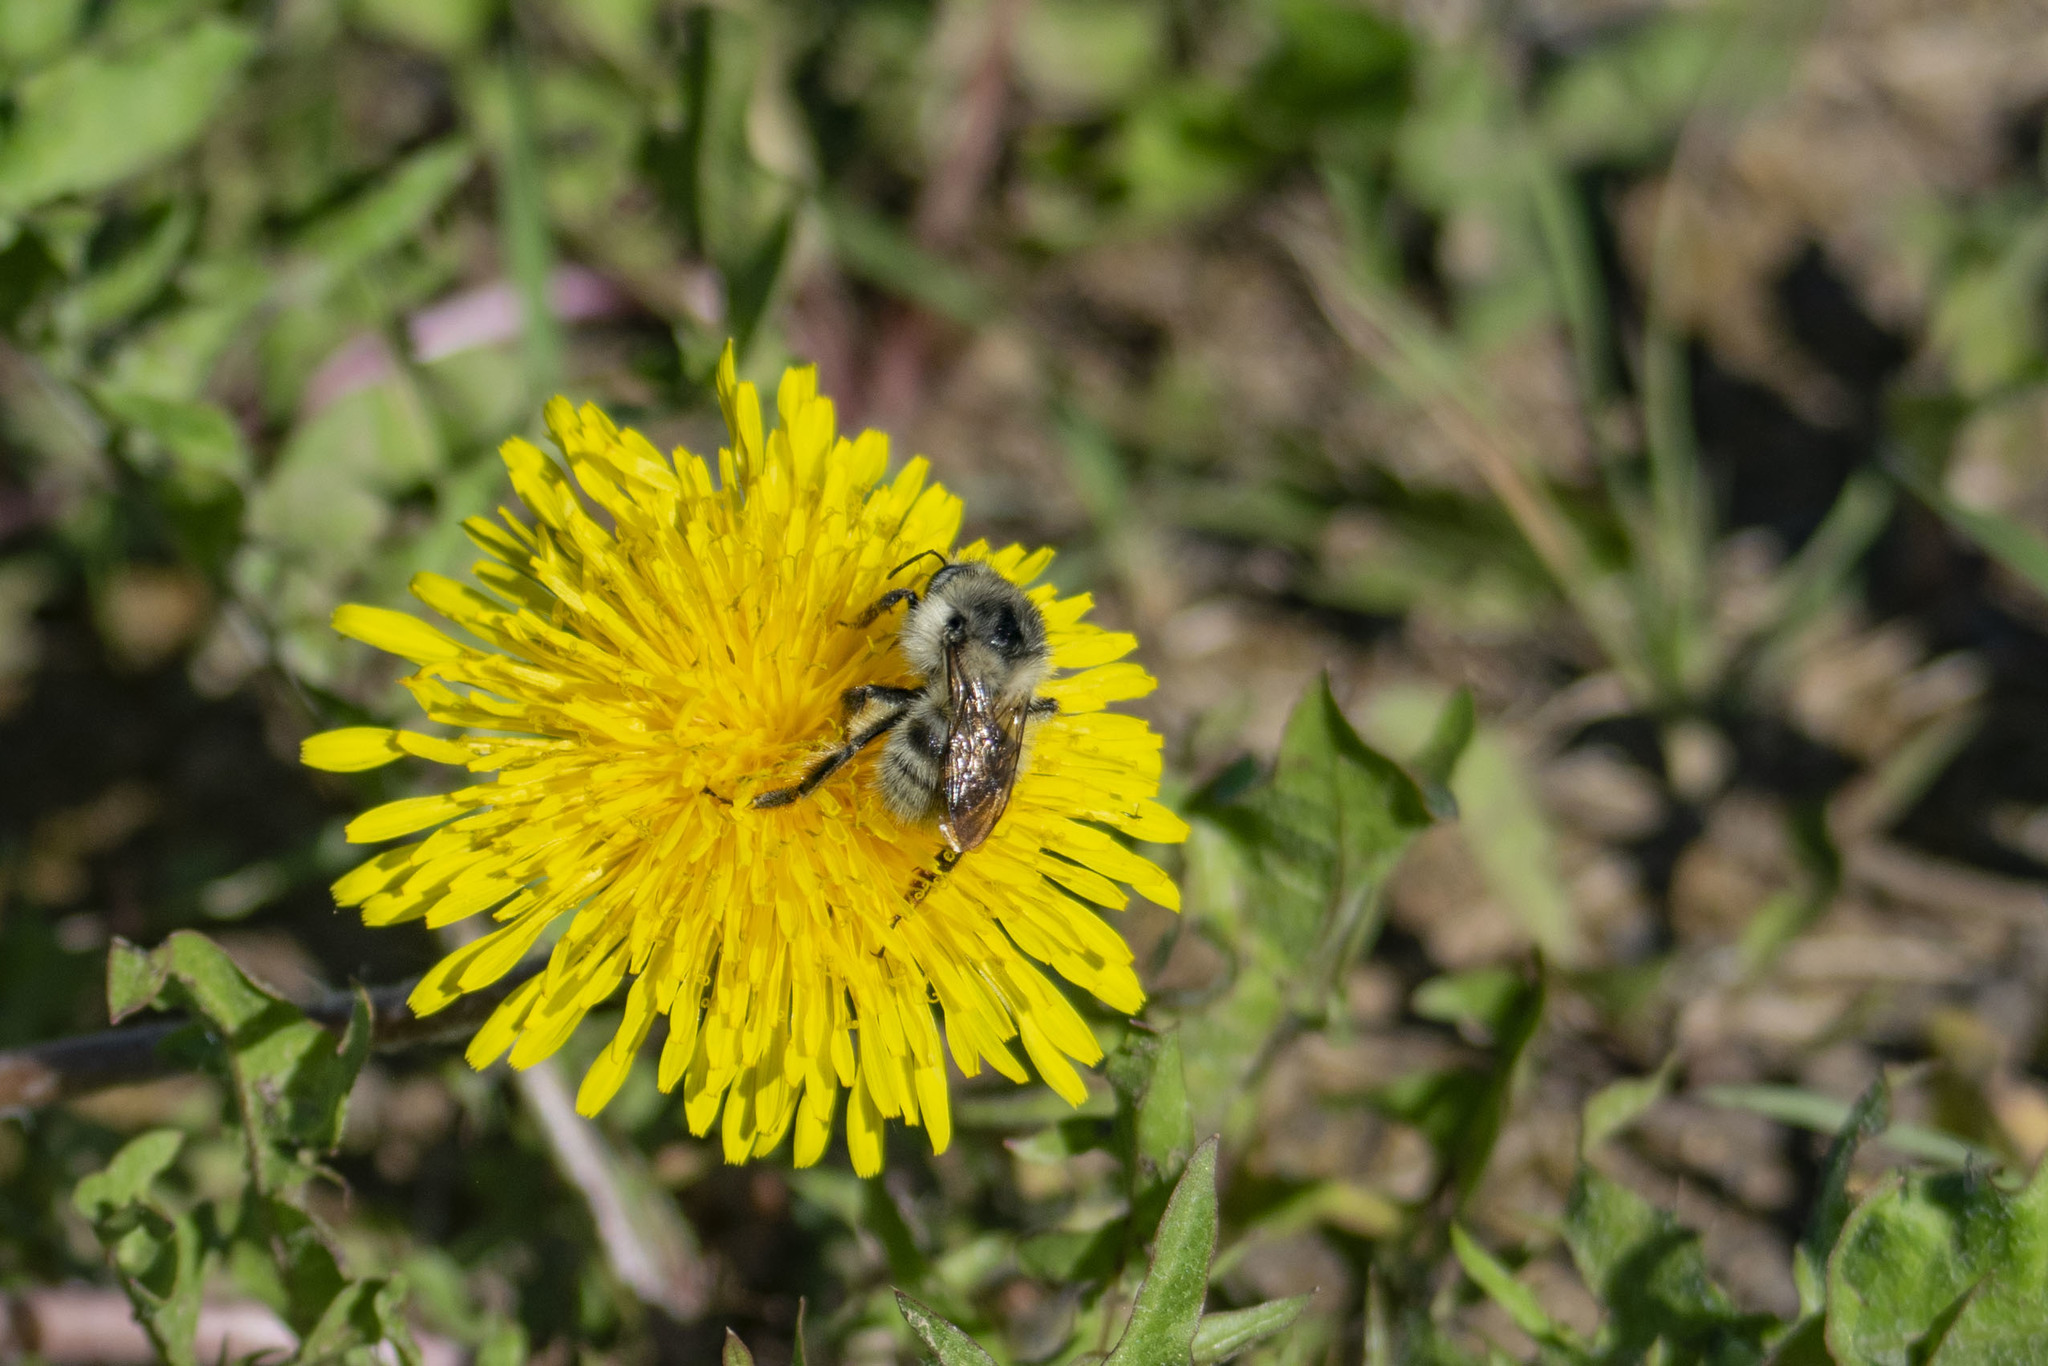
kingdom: Animalia
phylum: Arthropoda
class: Insecta
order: Hymenoptera
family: Apidae
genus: Bombus
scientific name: Bombus veteranus
